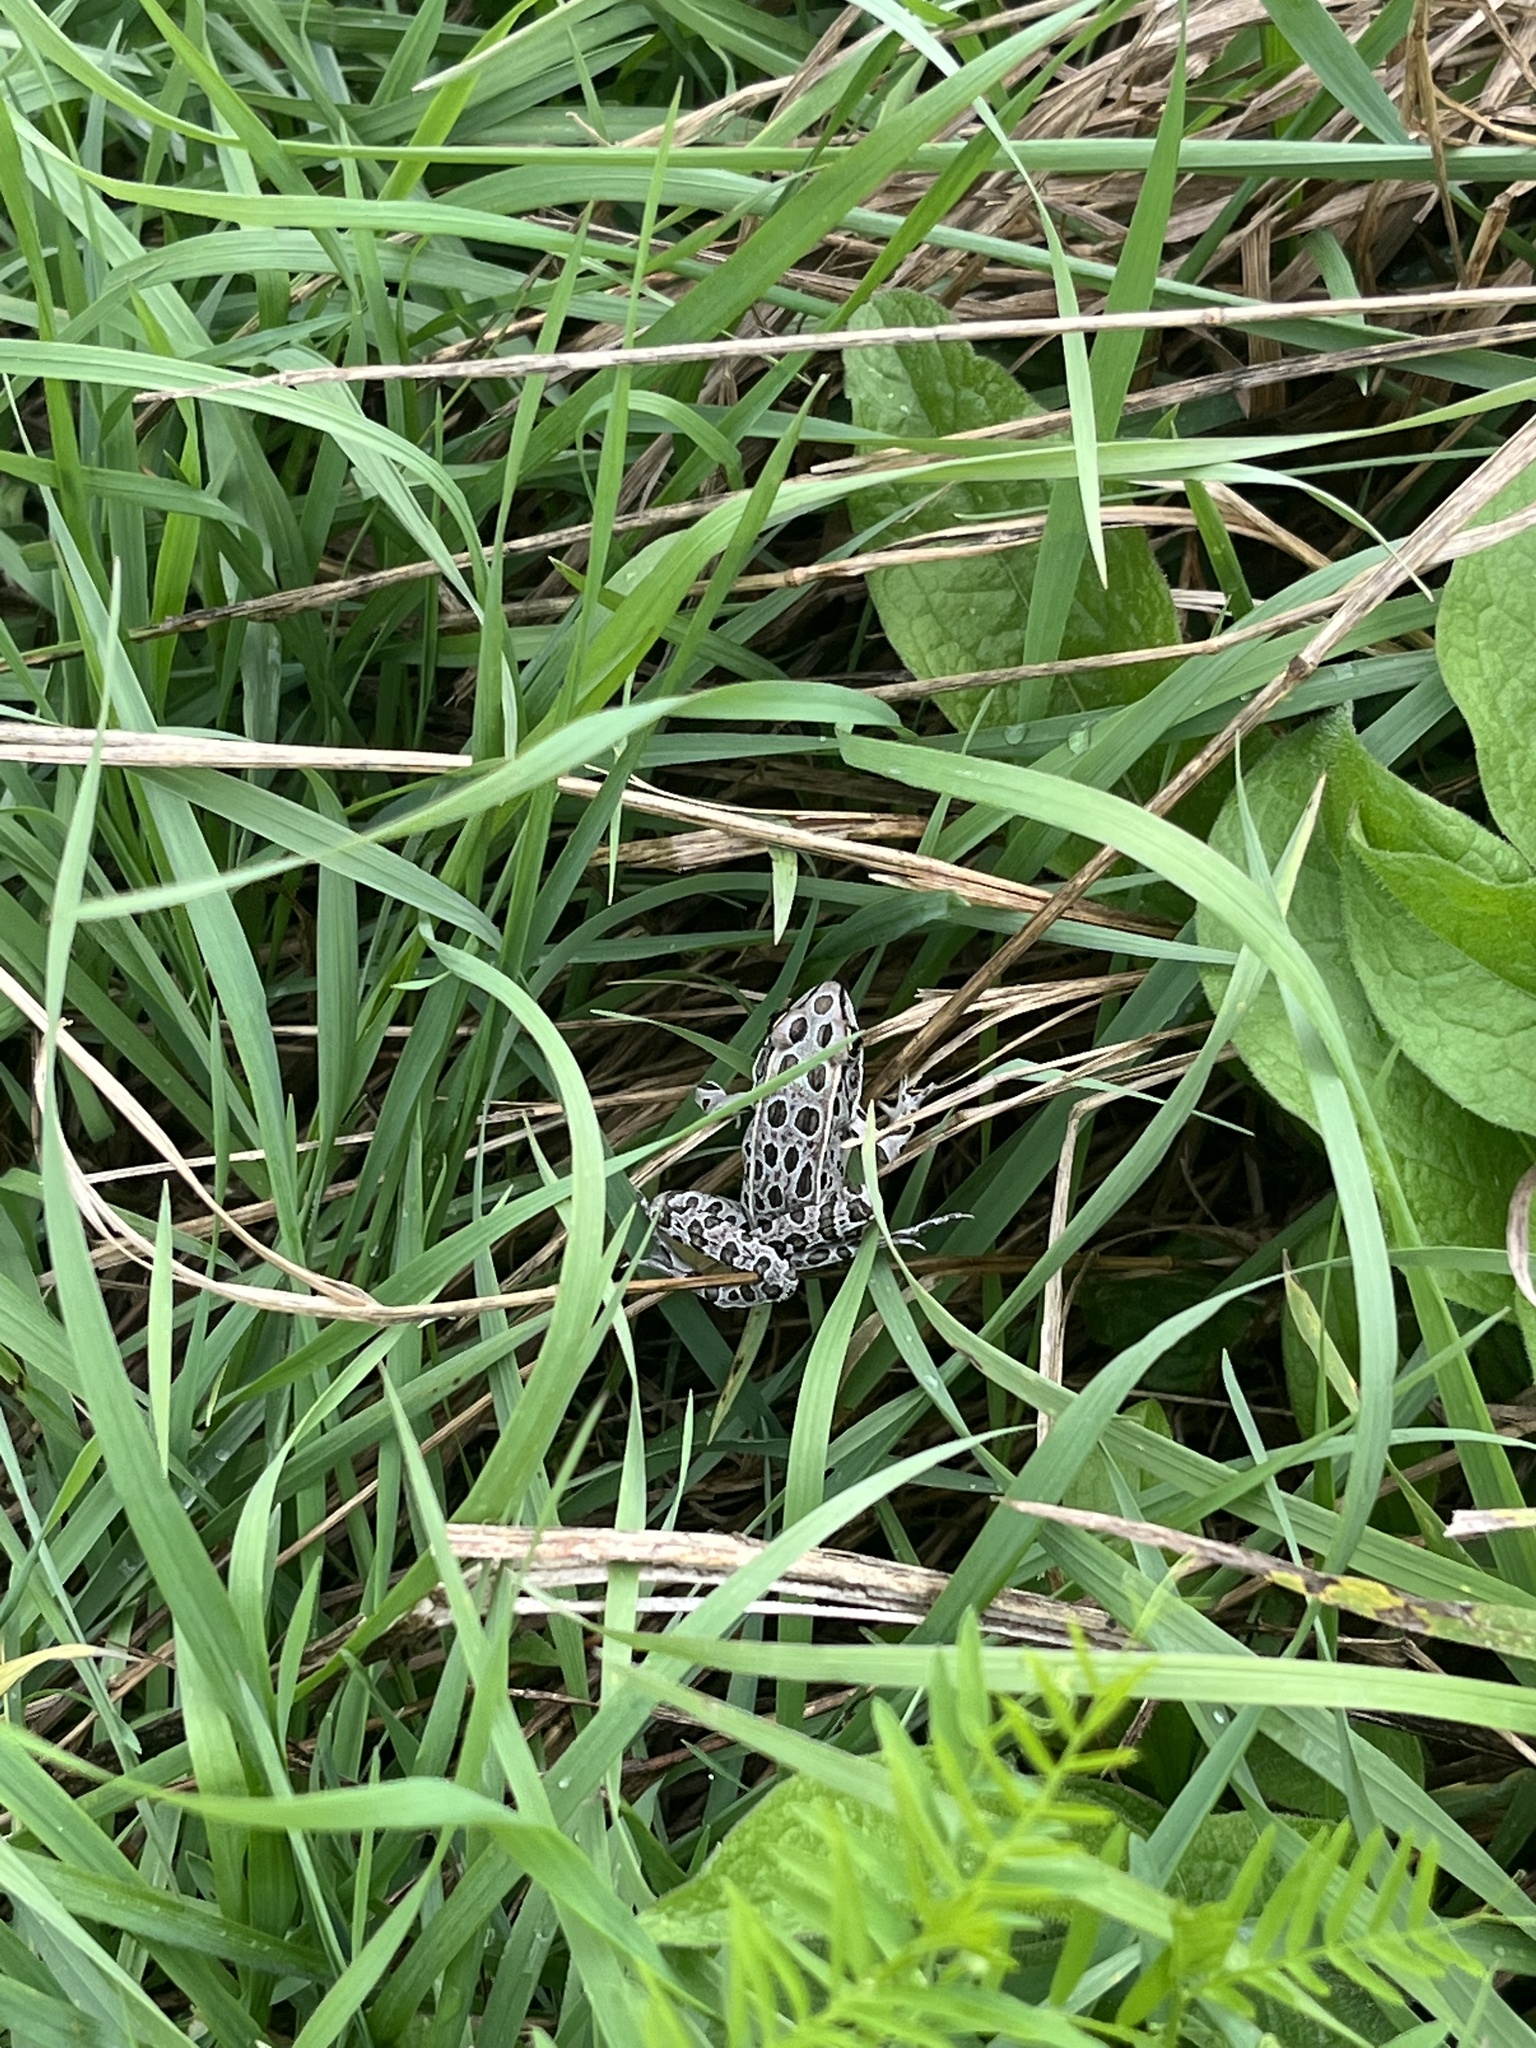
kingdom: Animalia
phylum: Chordata
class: Amphibia
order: Anura
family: Ranidae
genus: Lithobates
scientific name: Lithobates pipiens
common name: Northern leopard frog
